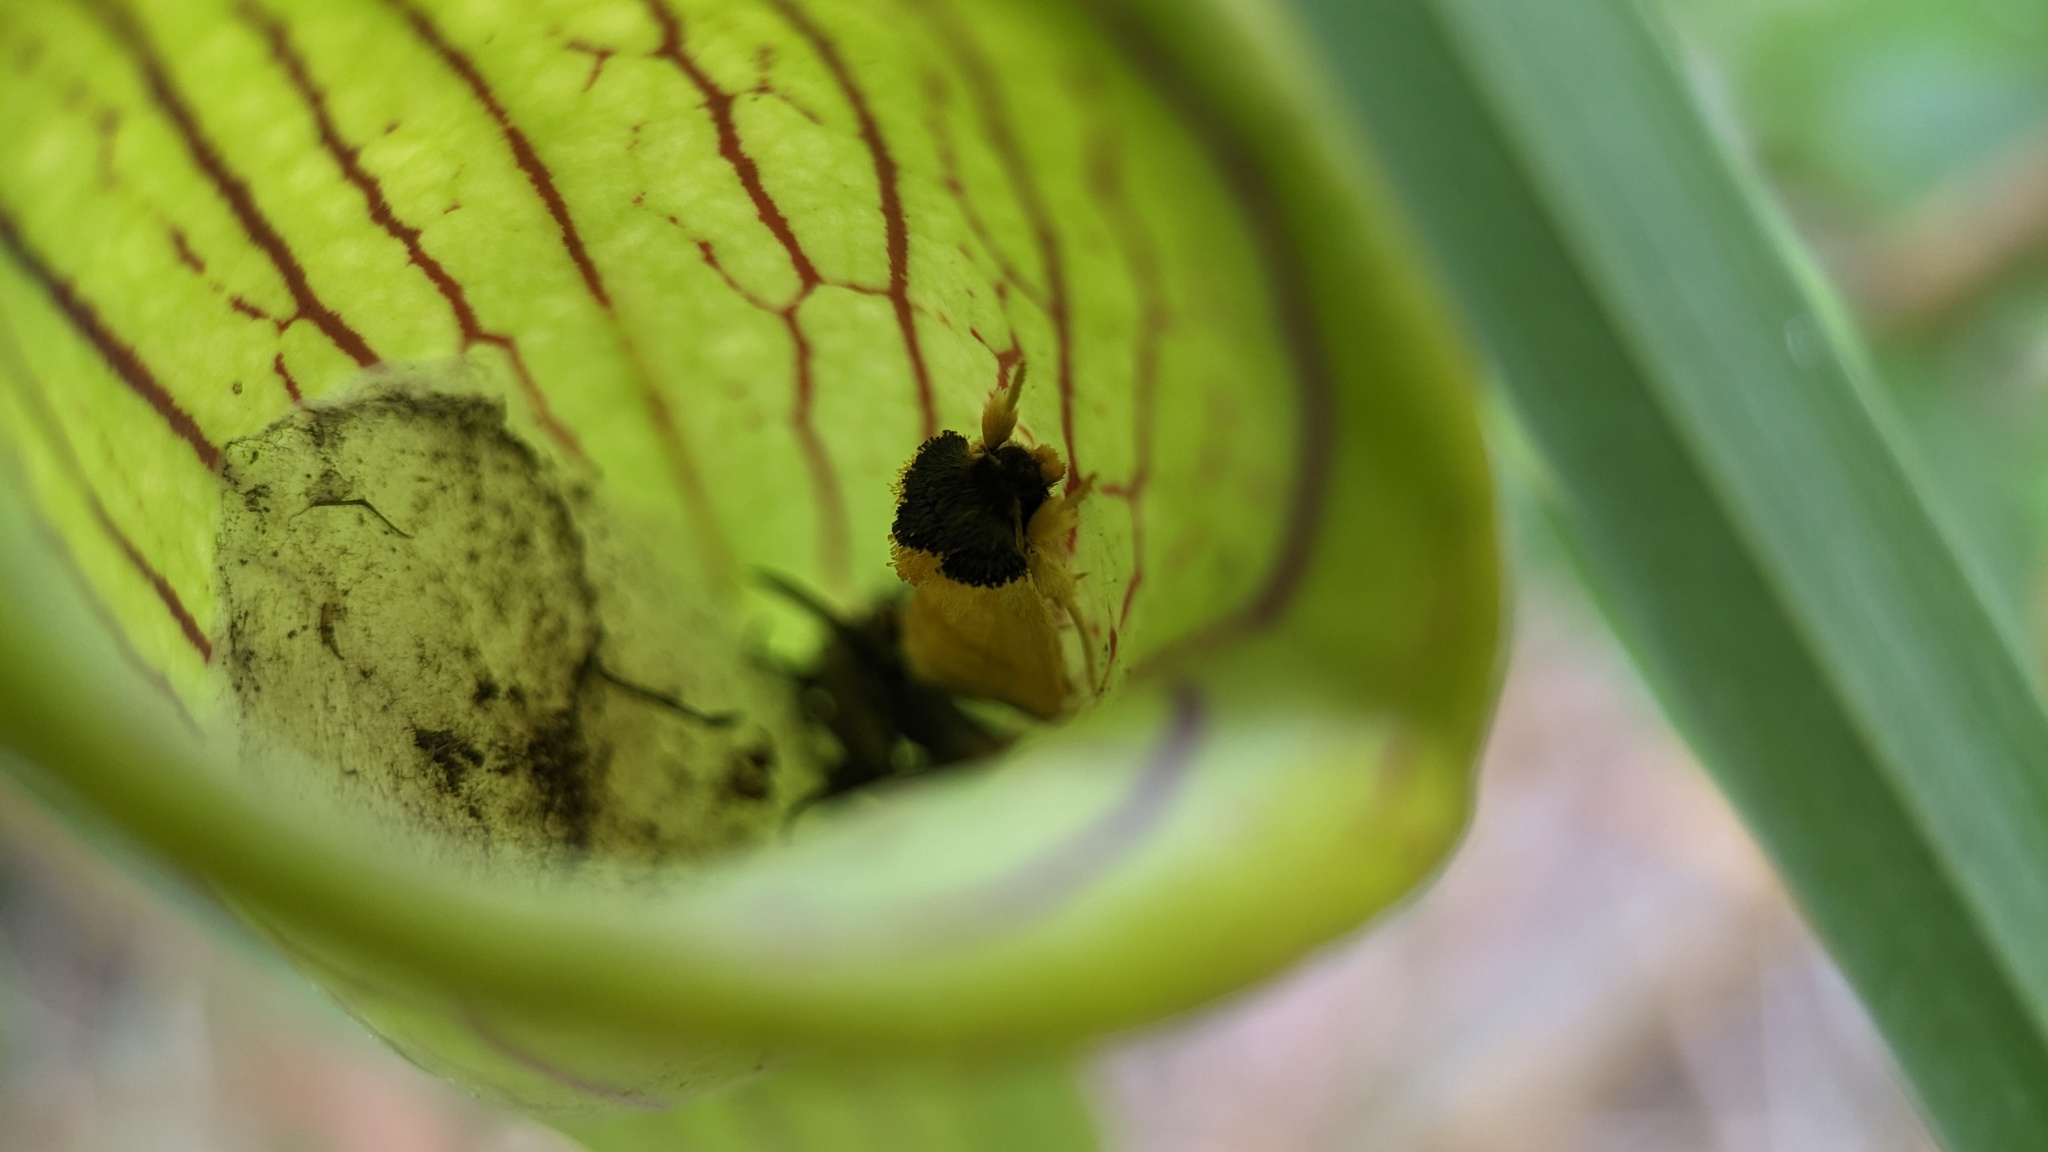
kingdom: Animalia
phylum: Arthropoda
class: Insecta
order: Lepidoptera
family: Noctuidae
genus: Exyra
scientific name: Exyra semicrocea
